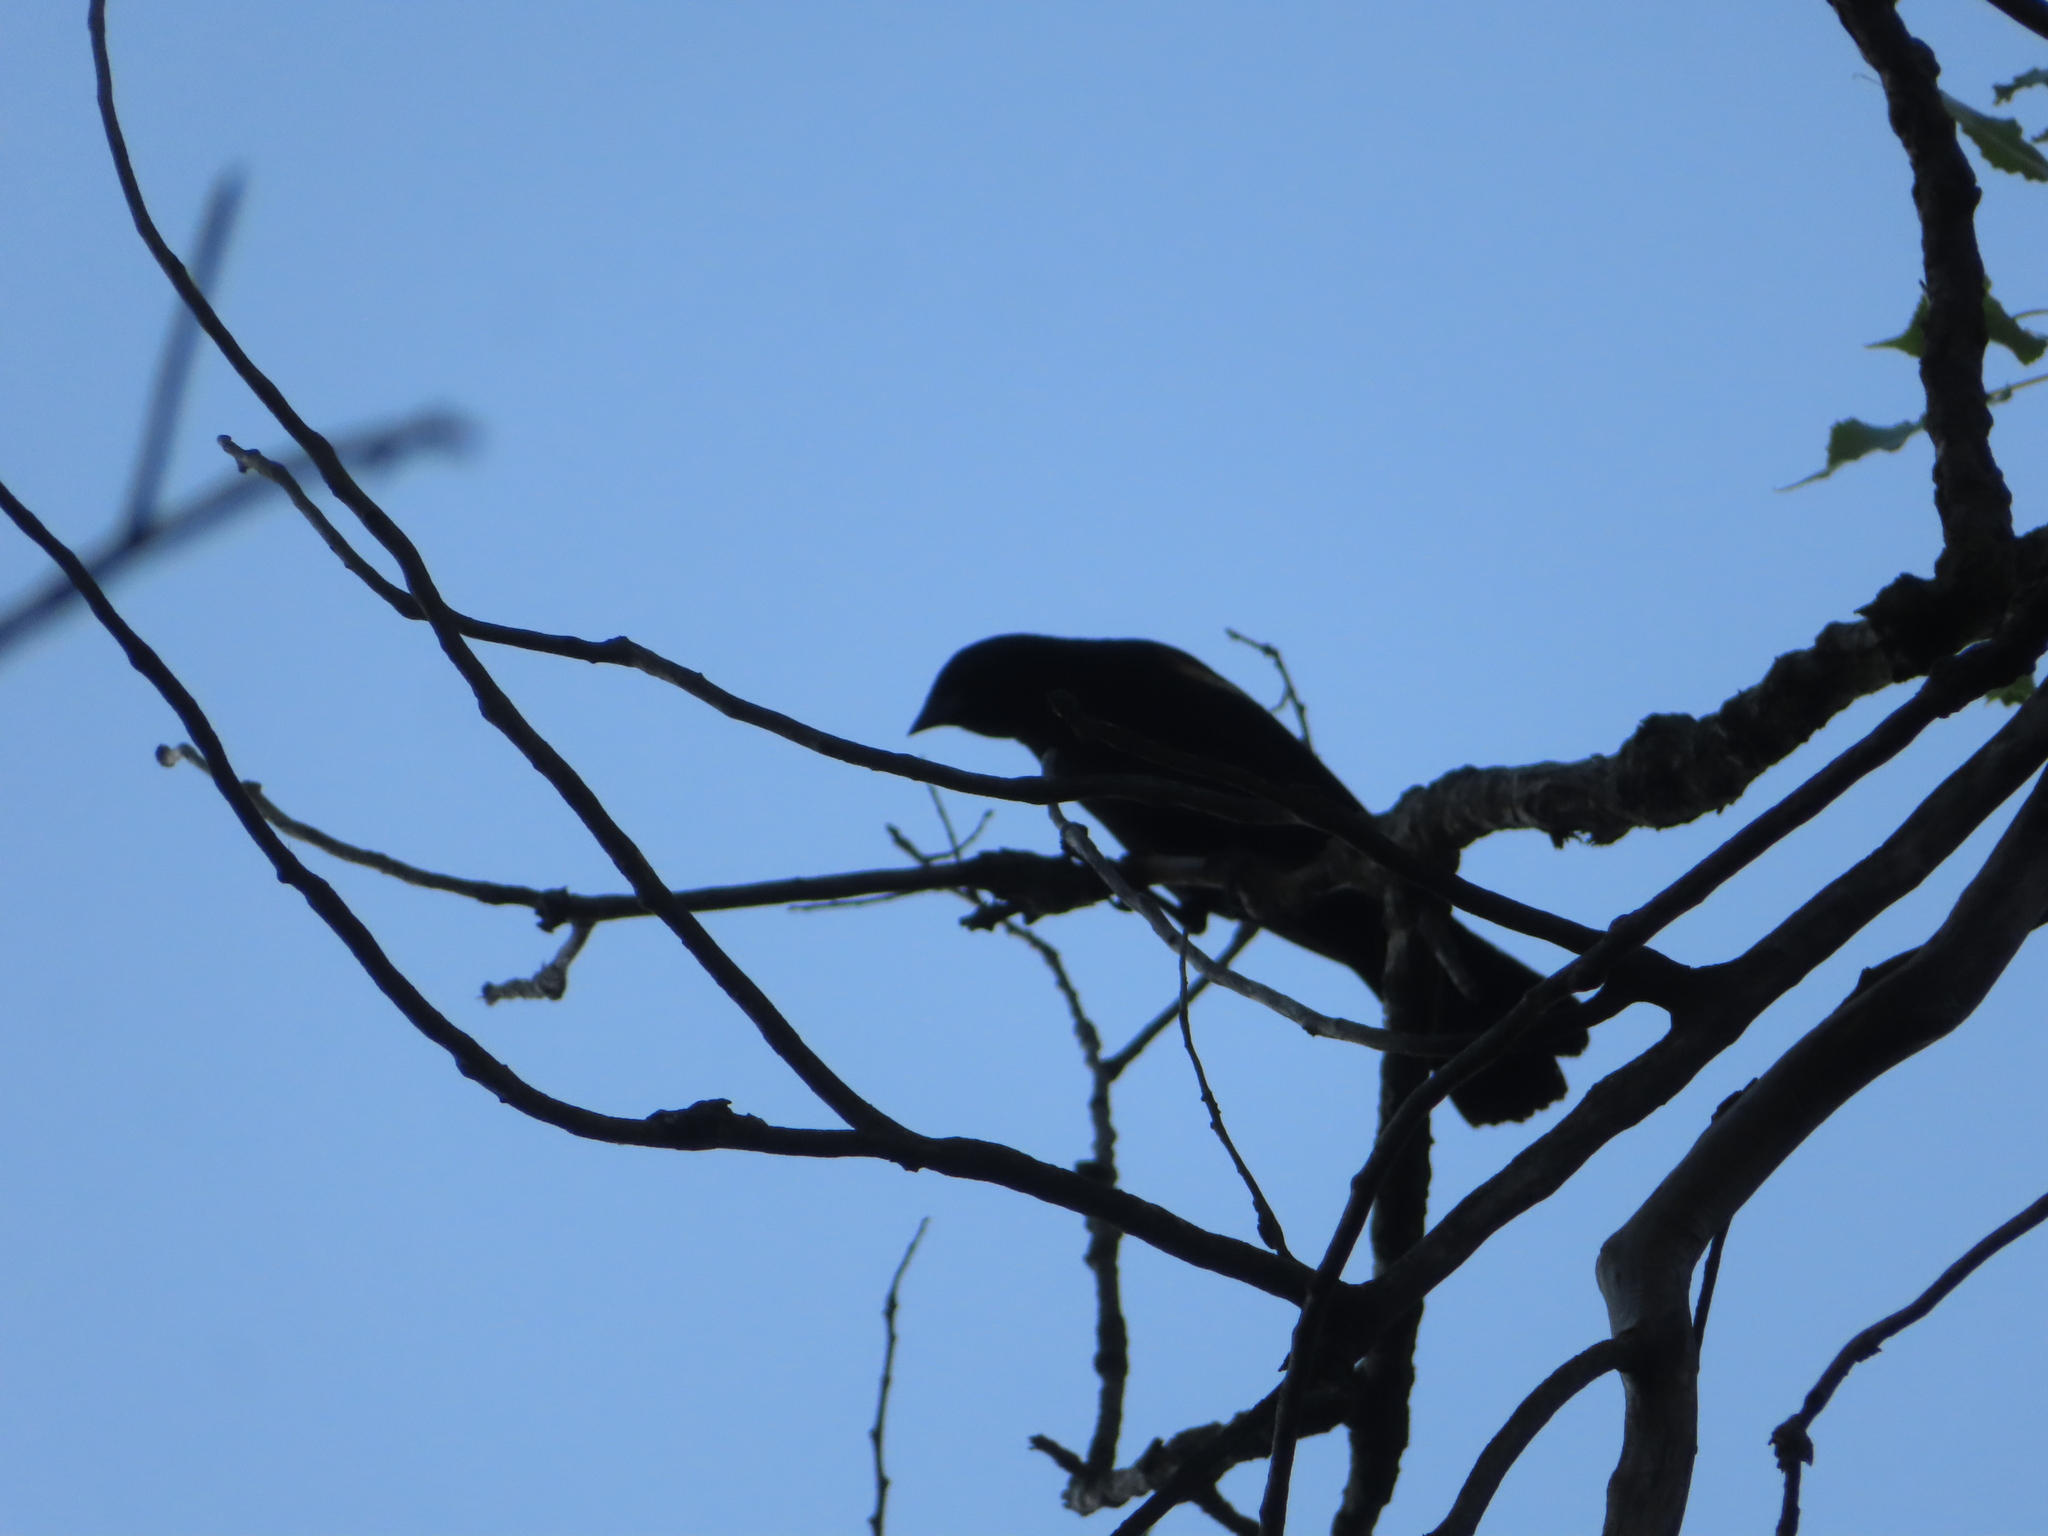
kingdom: Animalia
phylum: Chordata
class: Aves
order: Passeriformes
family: Icteridae
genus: Agelaius
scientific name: Agelaius phoeniceus
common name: Red-winged blackbird
